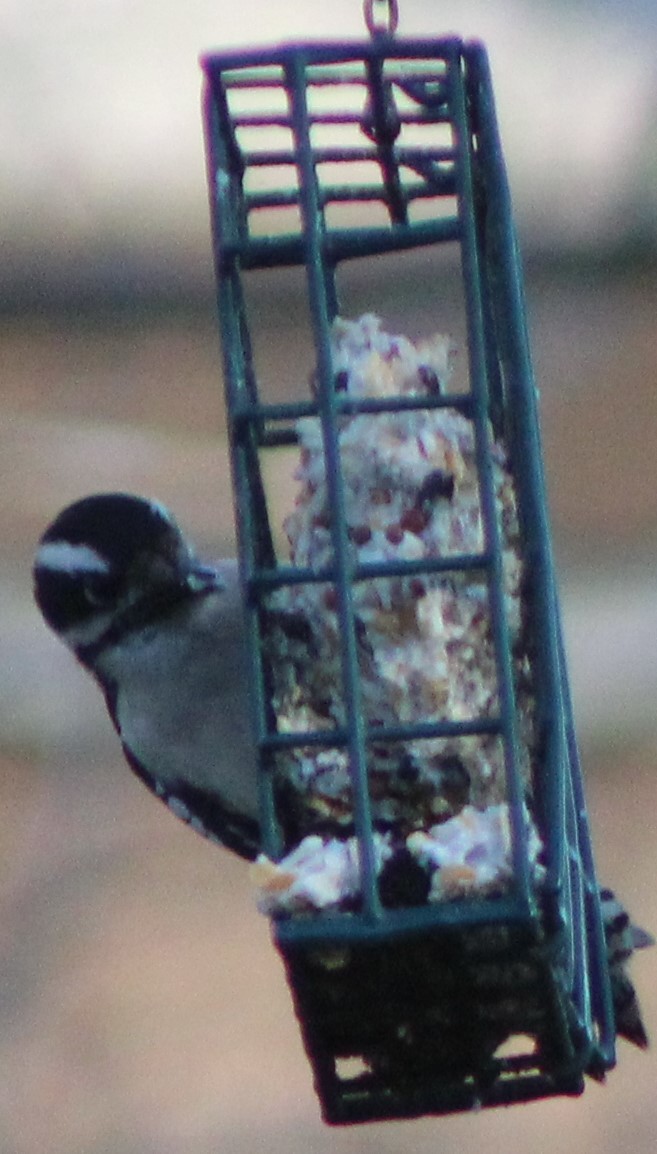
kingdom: Animalia
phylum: Chordata
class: Aves
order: Piciformes
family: Picidae
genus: Dryobates
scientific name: Dryobates pubescens
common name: Downy woodpecker
